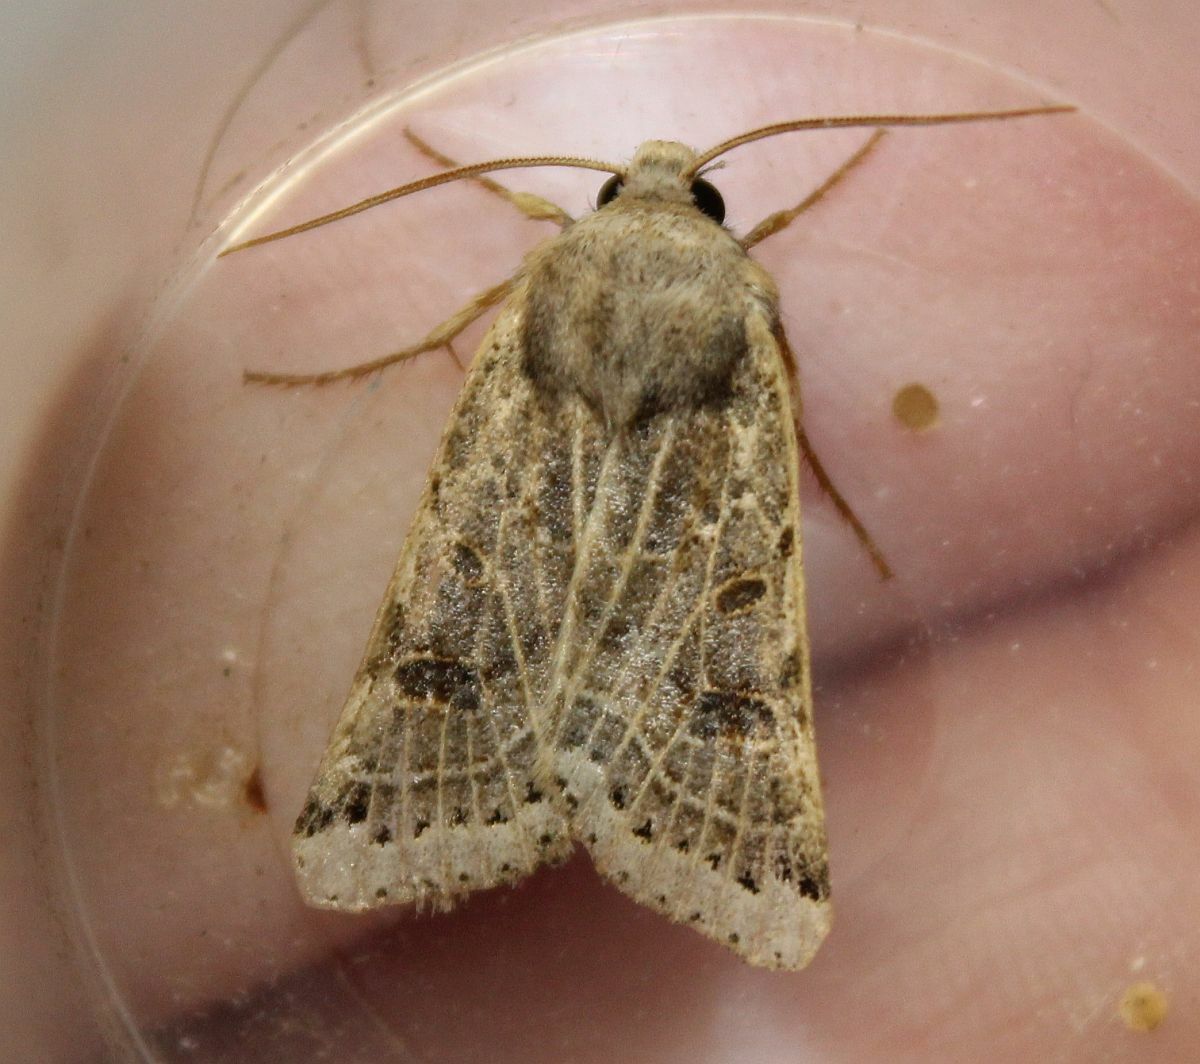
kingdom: Animalia
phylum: Arthropoda
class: Insecta
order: Lepidoptera
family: Noctuidae
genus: Agrochola
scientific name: Agrochola lunosa
